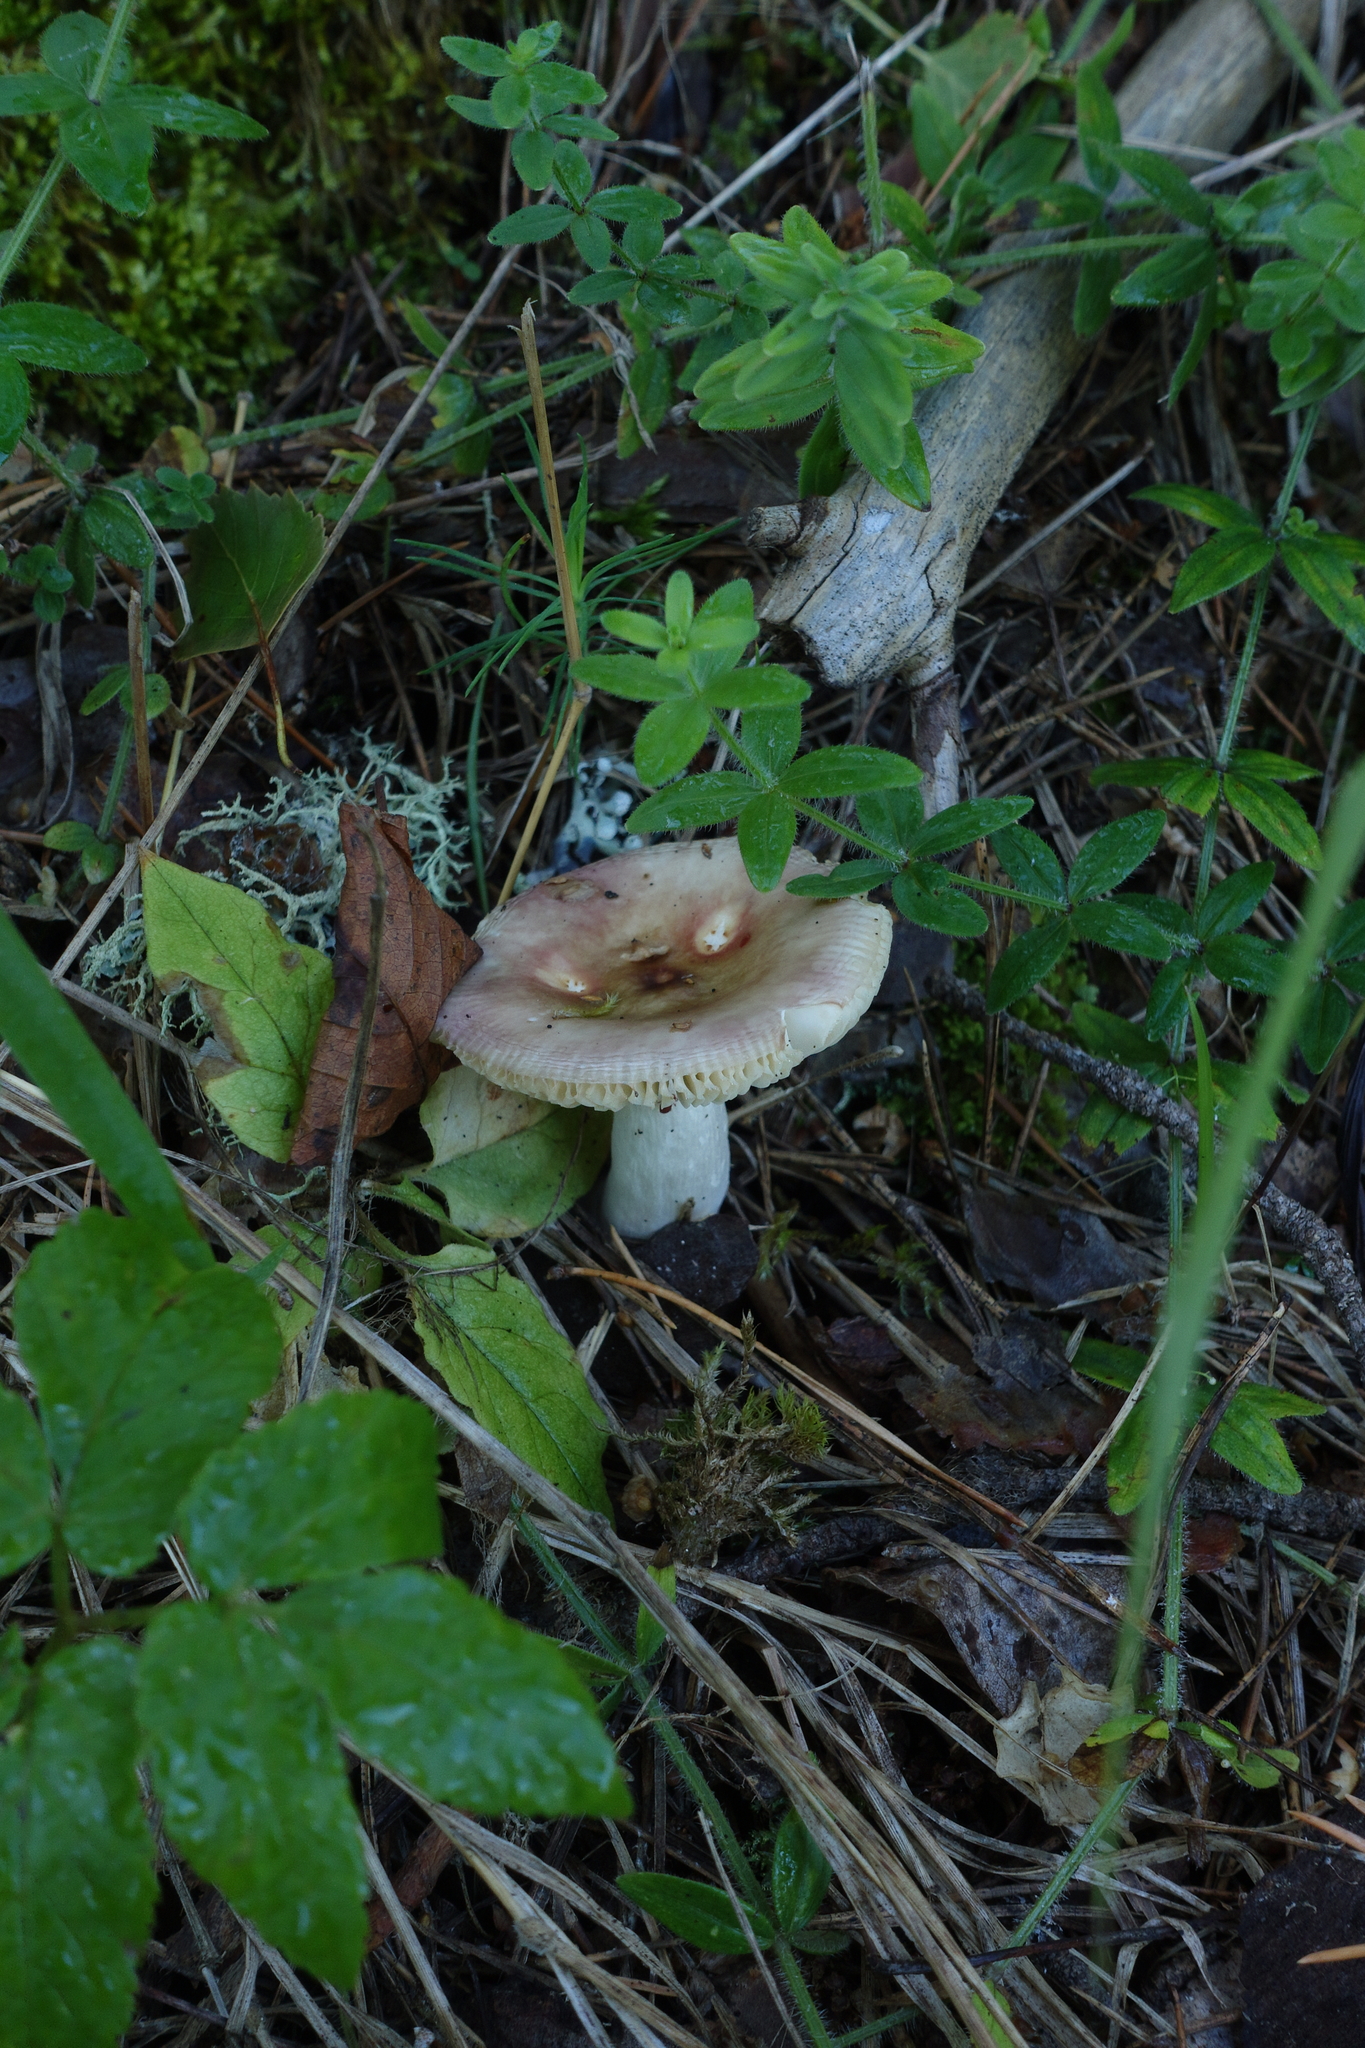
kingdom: Plantae
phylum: Tracheophyta
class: Magnoliopsida
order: Gentianales
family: Rubiaceae
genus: Cruciata
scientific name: Cruciata glabra
